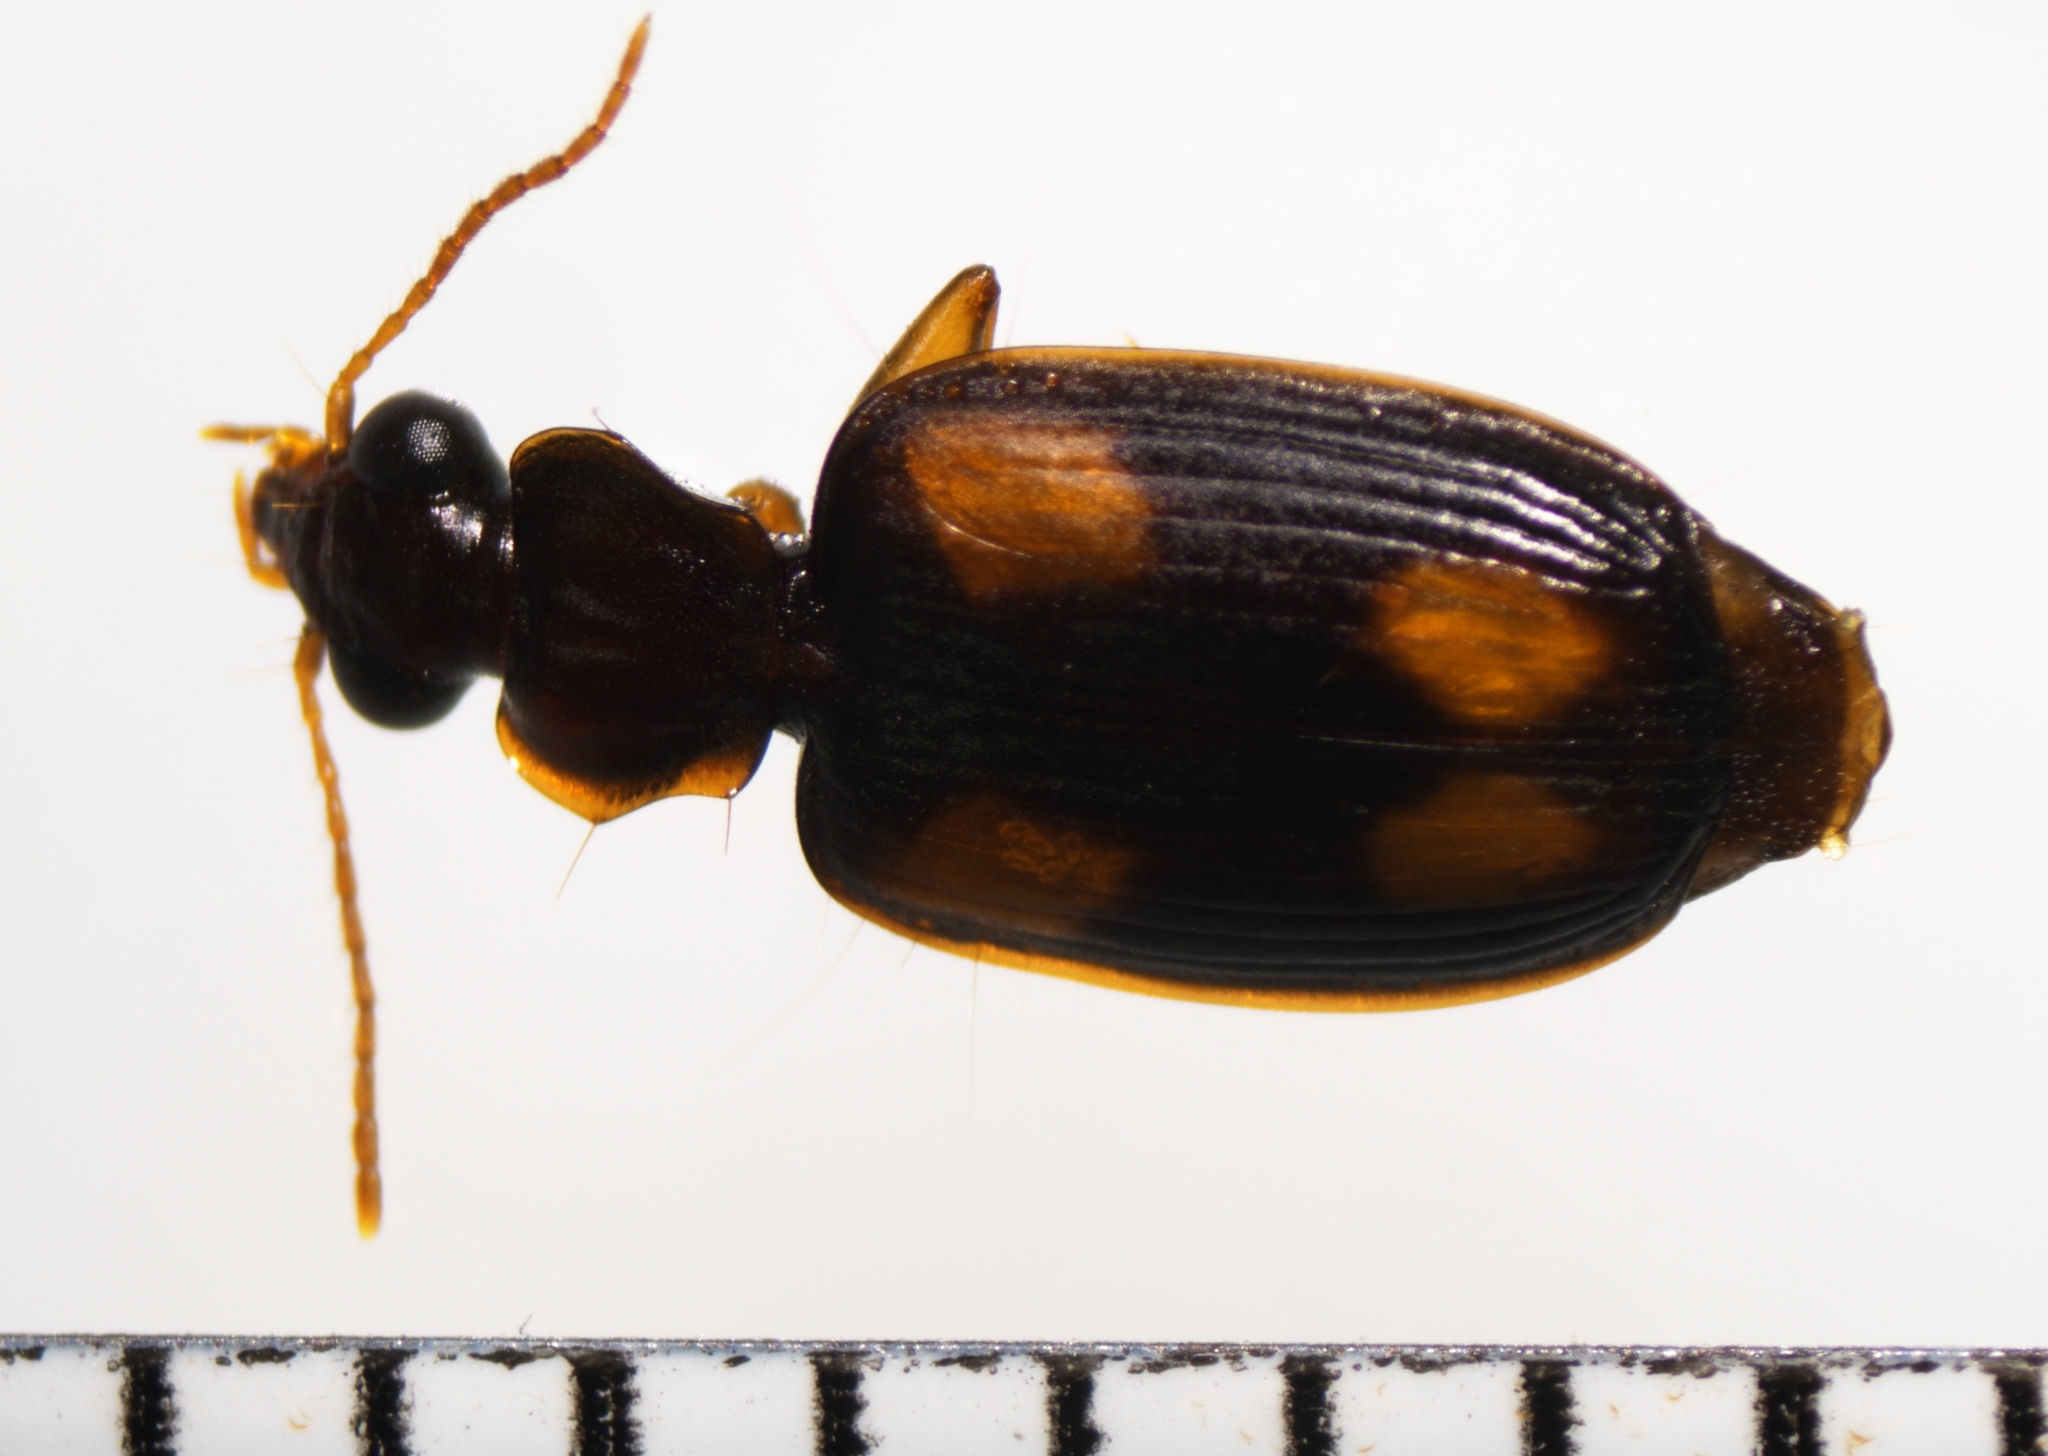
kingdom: Animalia
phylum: Arthropoda
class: Insecta
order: Coleoptera
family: Carabidae
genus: Mochtherus
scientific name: Mochtherus tetraspilotus
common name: Asian ground beetle
